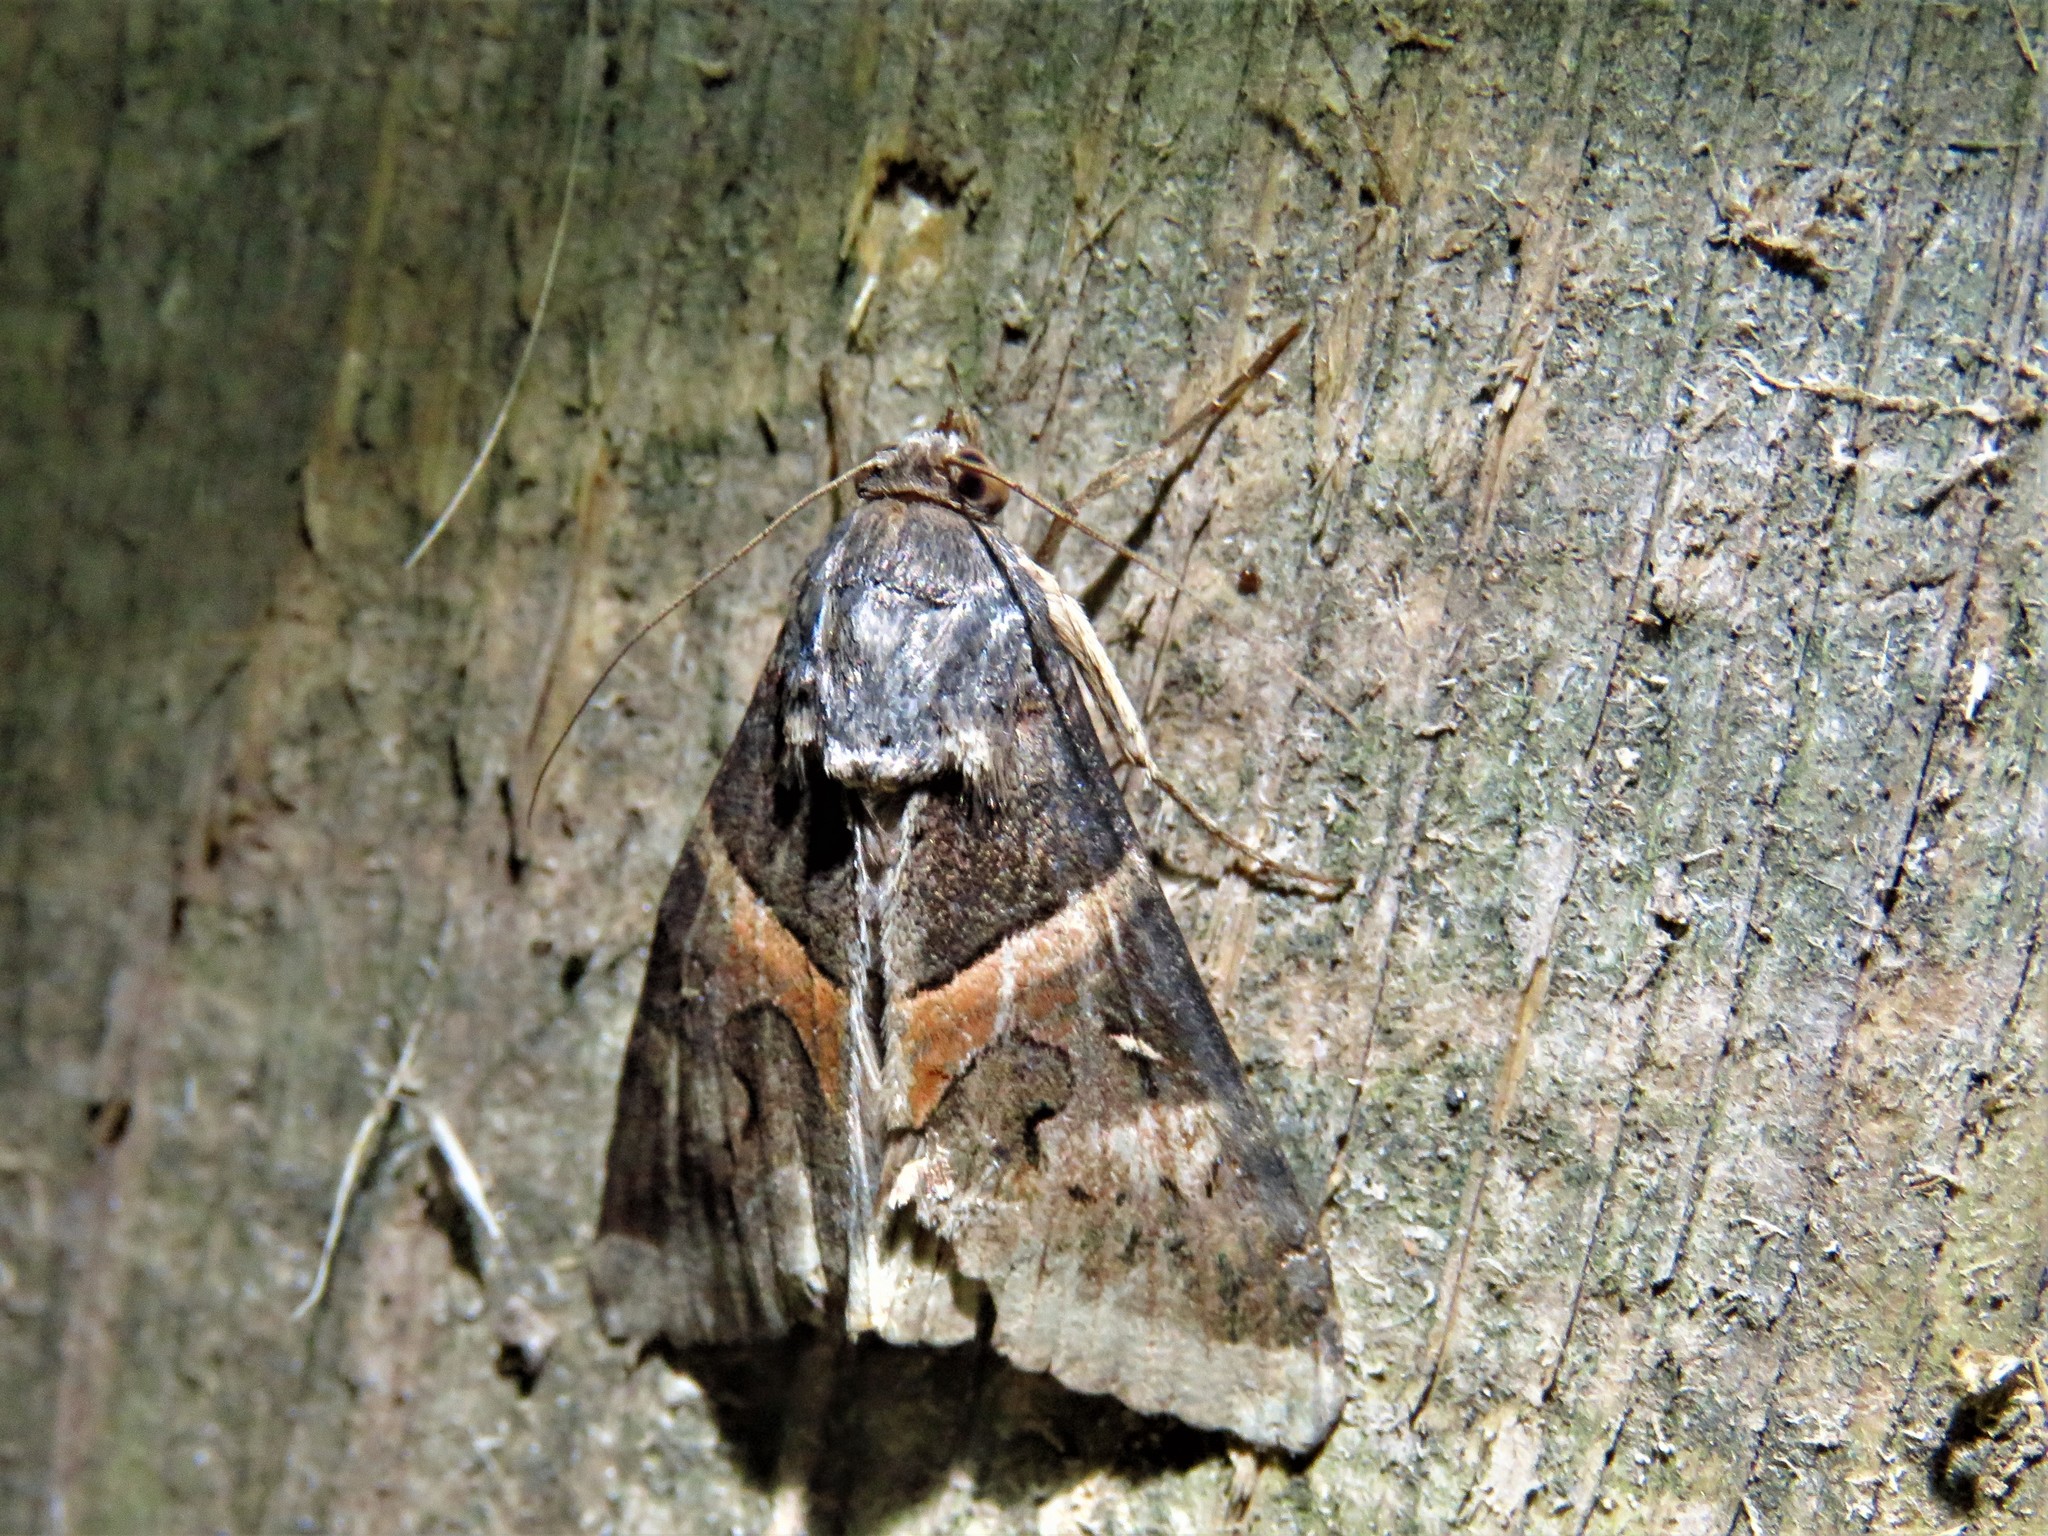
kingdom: Animalia
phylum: Arthropoda
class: Insecta
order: Lepidoptera
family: Erebidae
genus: Melipotis
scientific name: Melipotis indomita
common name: Moth
